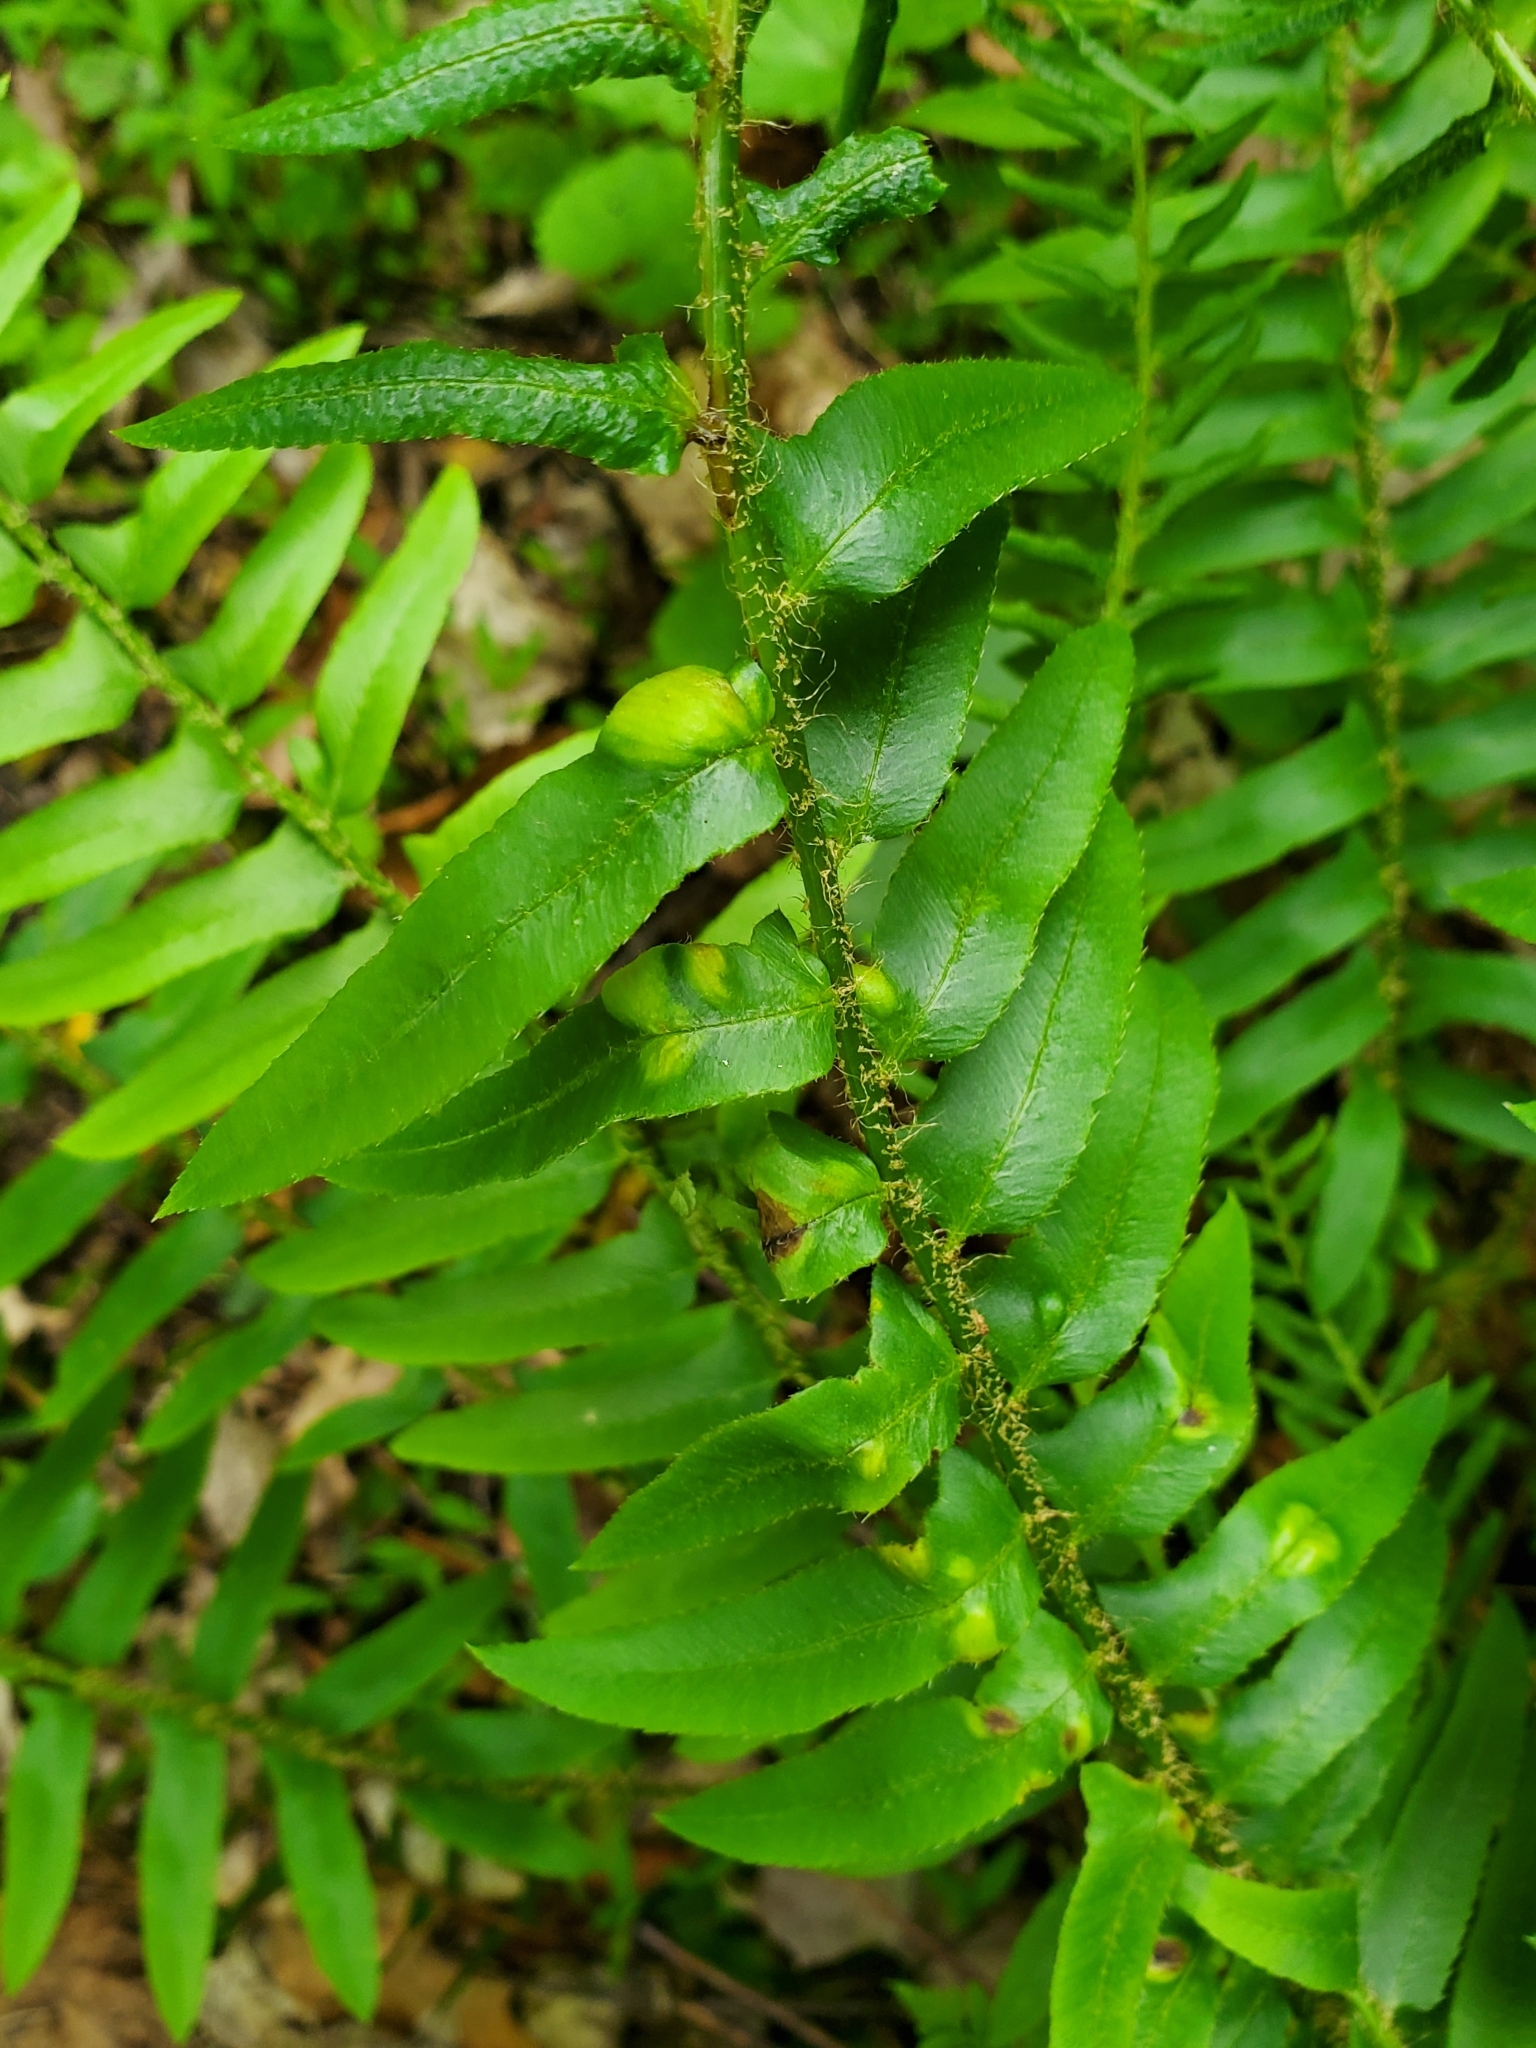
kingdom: Fungi
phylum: Ascomycota
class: Taphrinomycetes
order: Taphrinales
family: Taphrinaceae
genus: Taphrina
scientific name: Taphrina polystichi
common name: Christmas fern leaf curl
